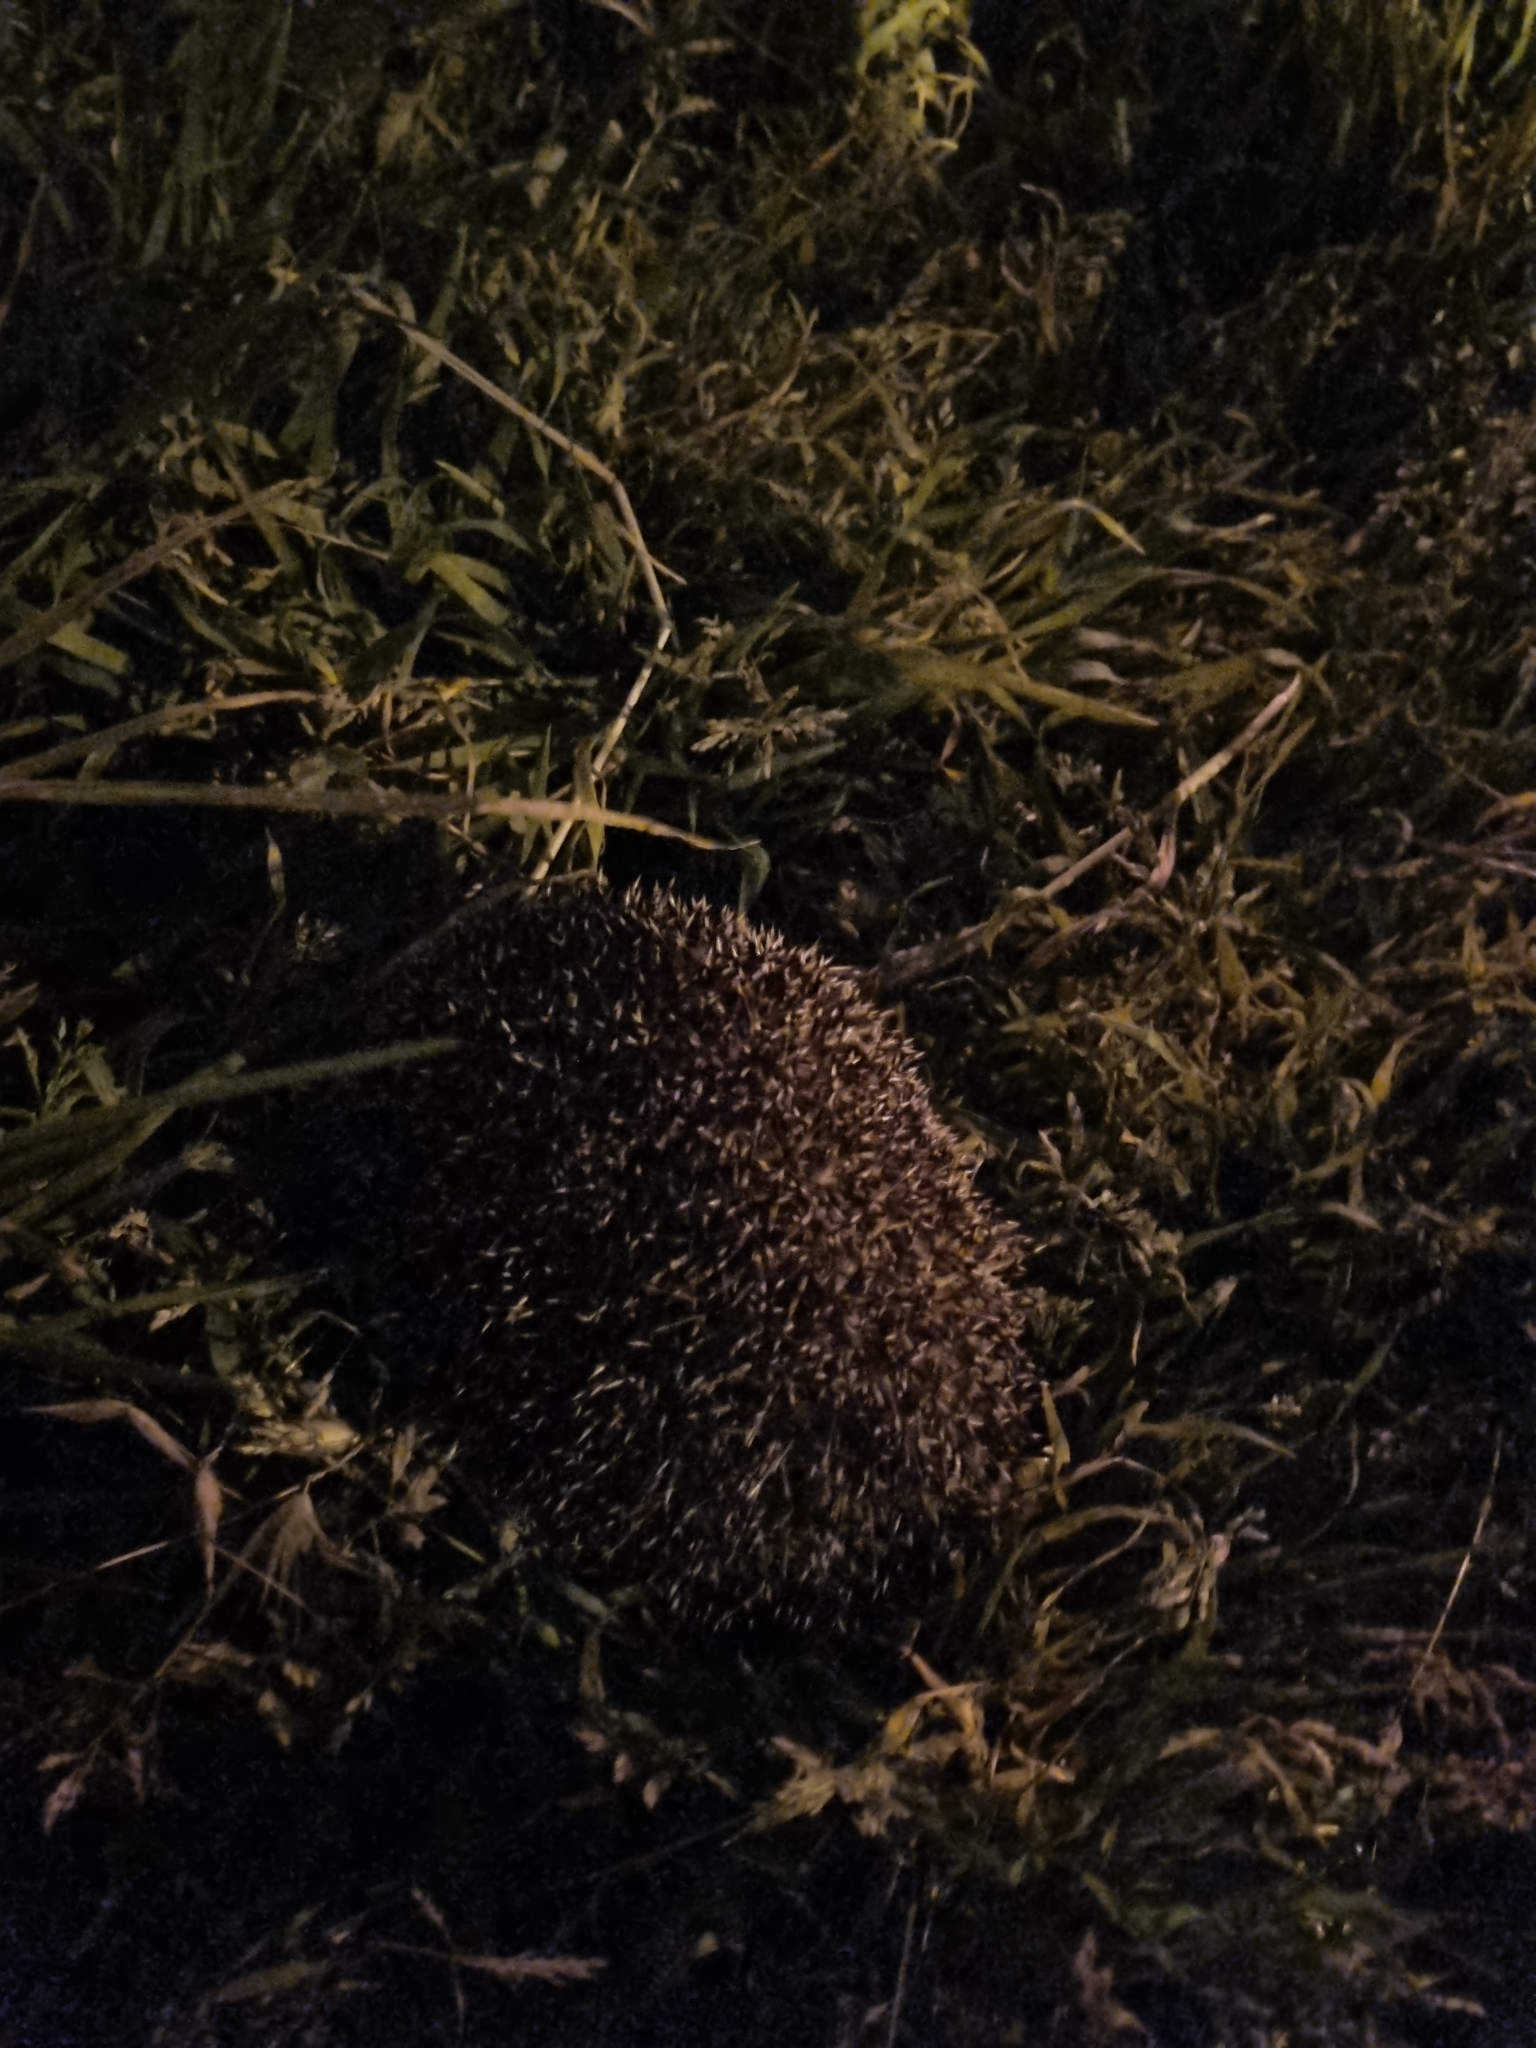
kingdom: Animalia
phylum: Chordata
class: Mammalia
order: Erinaceomorpha
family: Erinaceidae
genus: Erinaceus
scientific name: Erinaceus europaeus
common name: West european hedgehog
